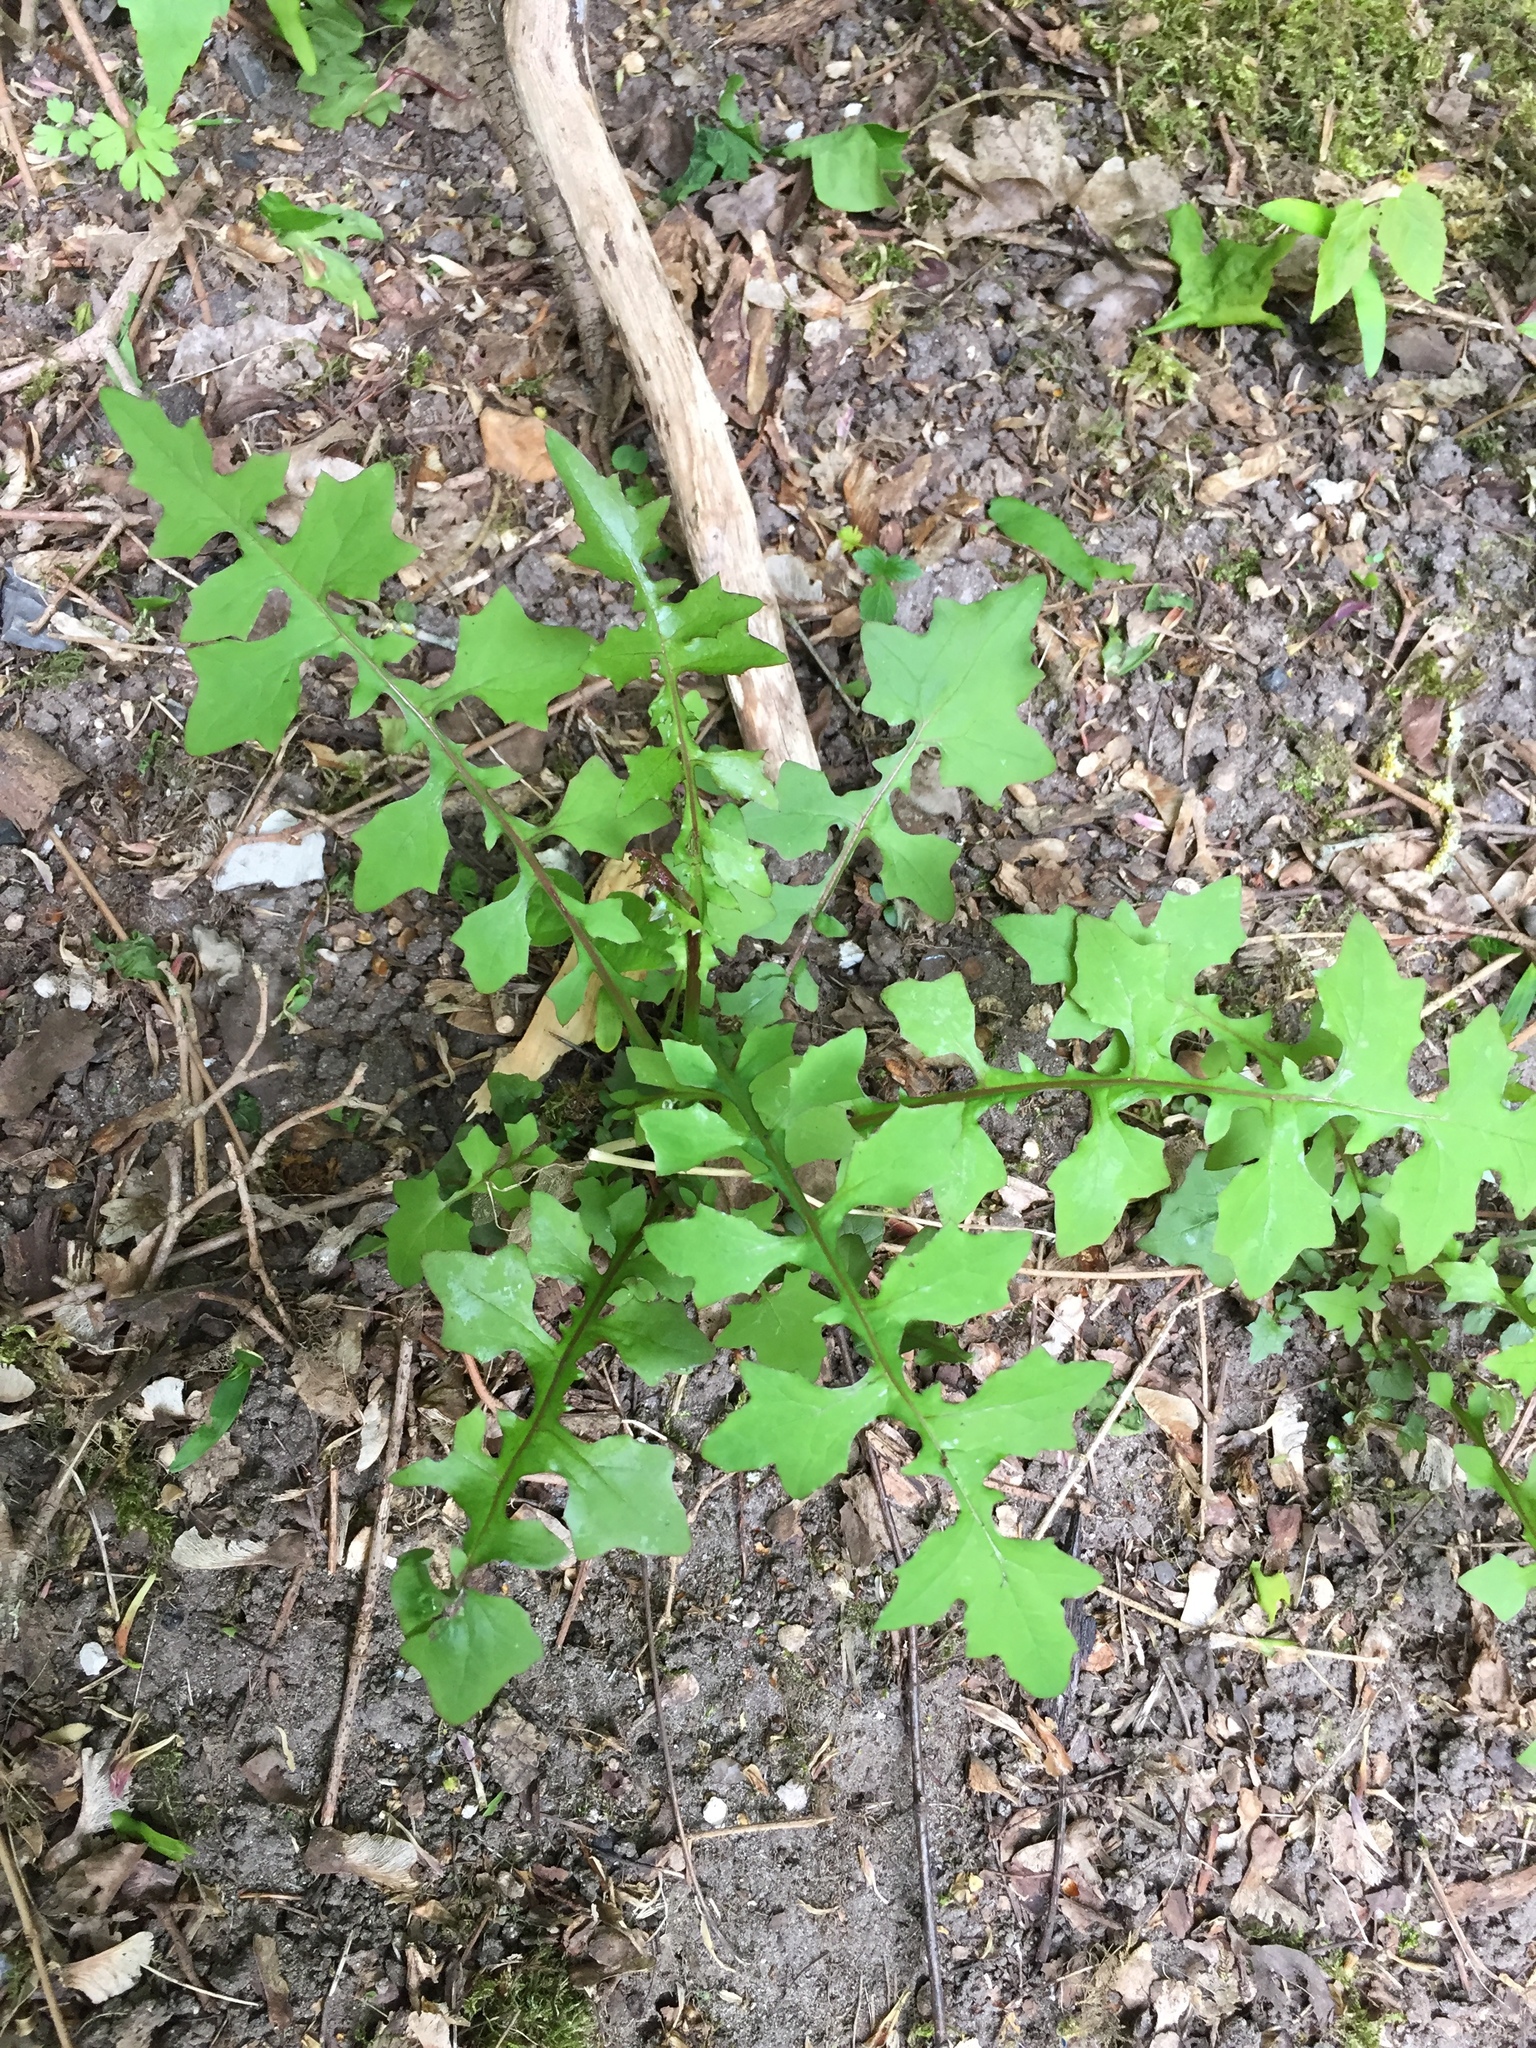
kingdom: Plantae
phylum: Tracheophyta
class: Magnoliopsida
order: Asterales
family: Asteraceae
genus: Mycelis
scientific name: Mycelis muralis
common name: Wall lettuce
